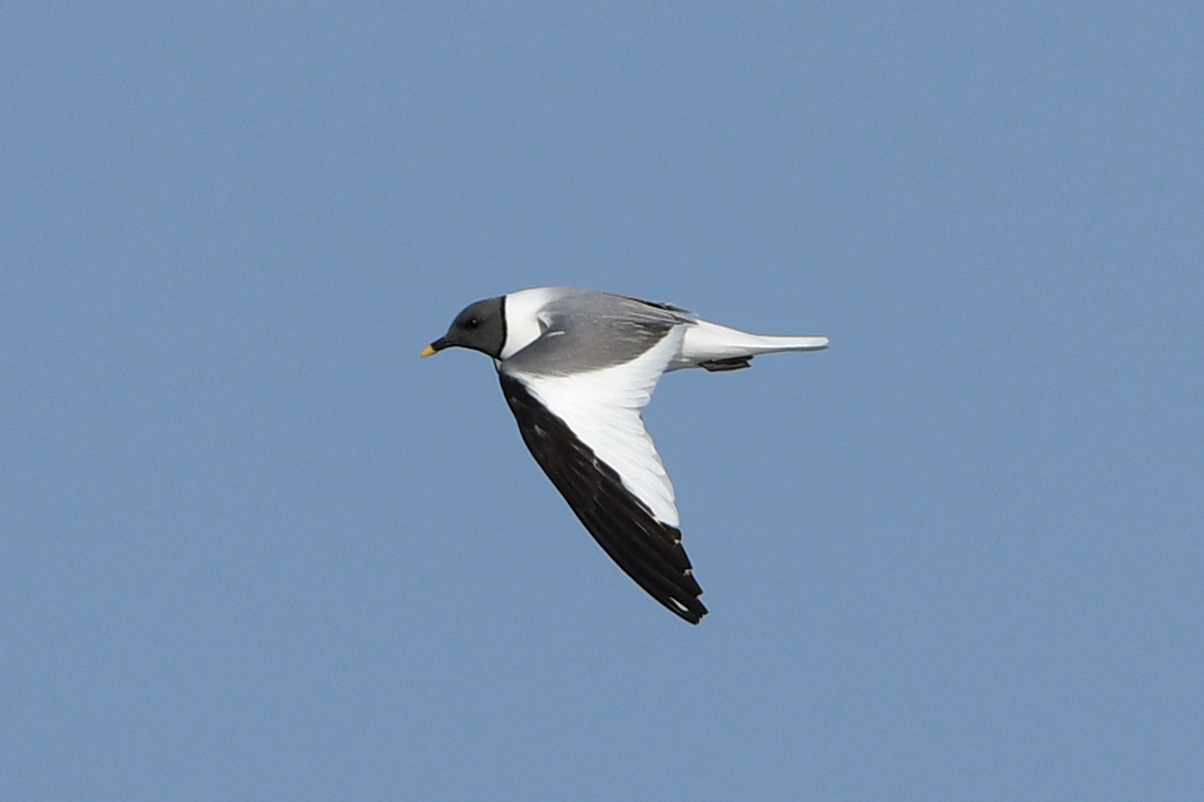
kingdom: Animalia
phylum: Chordata
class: Aves
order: Charadriiformes
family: Laridae
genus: Xema
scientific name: Xema sabini
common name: Sabine's gull
